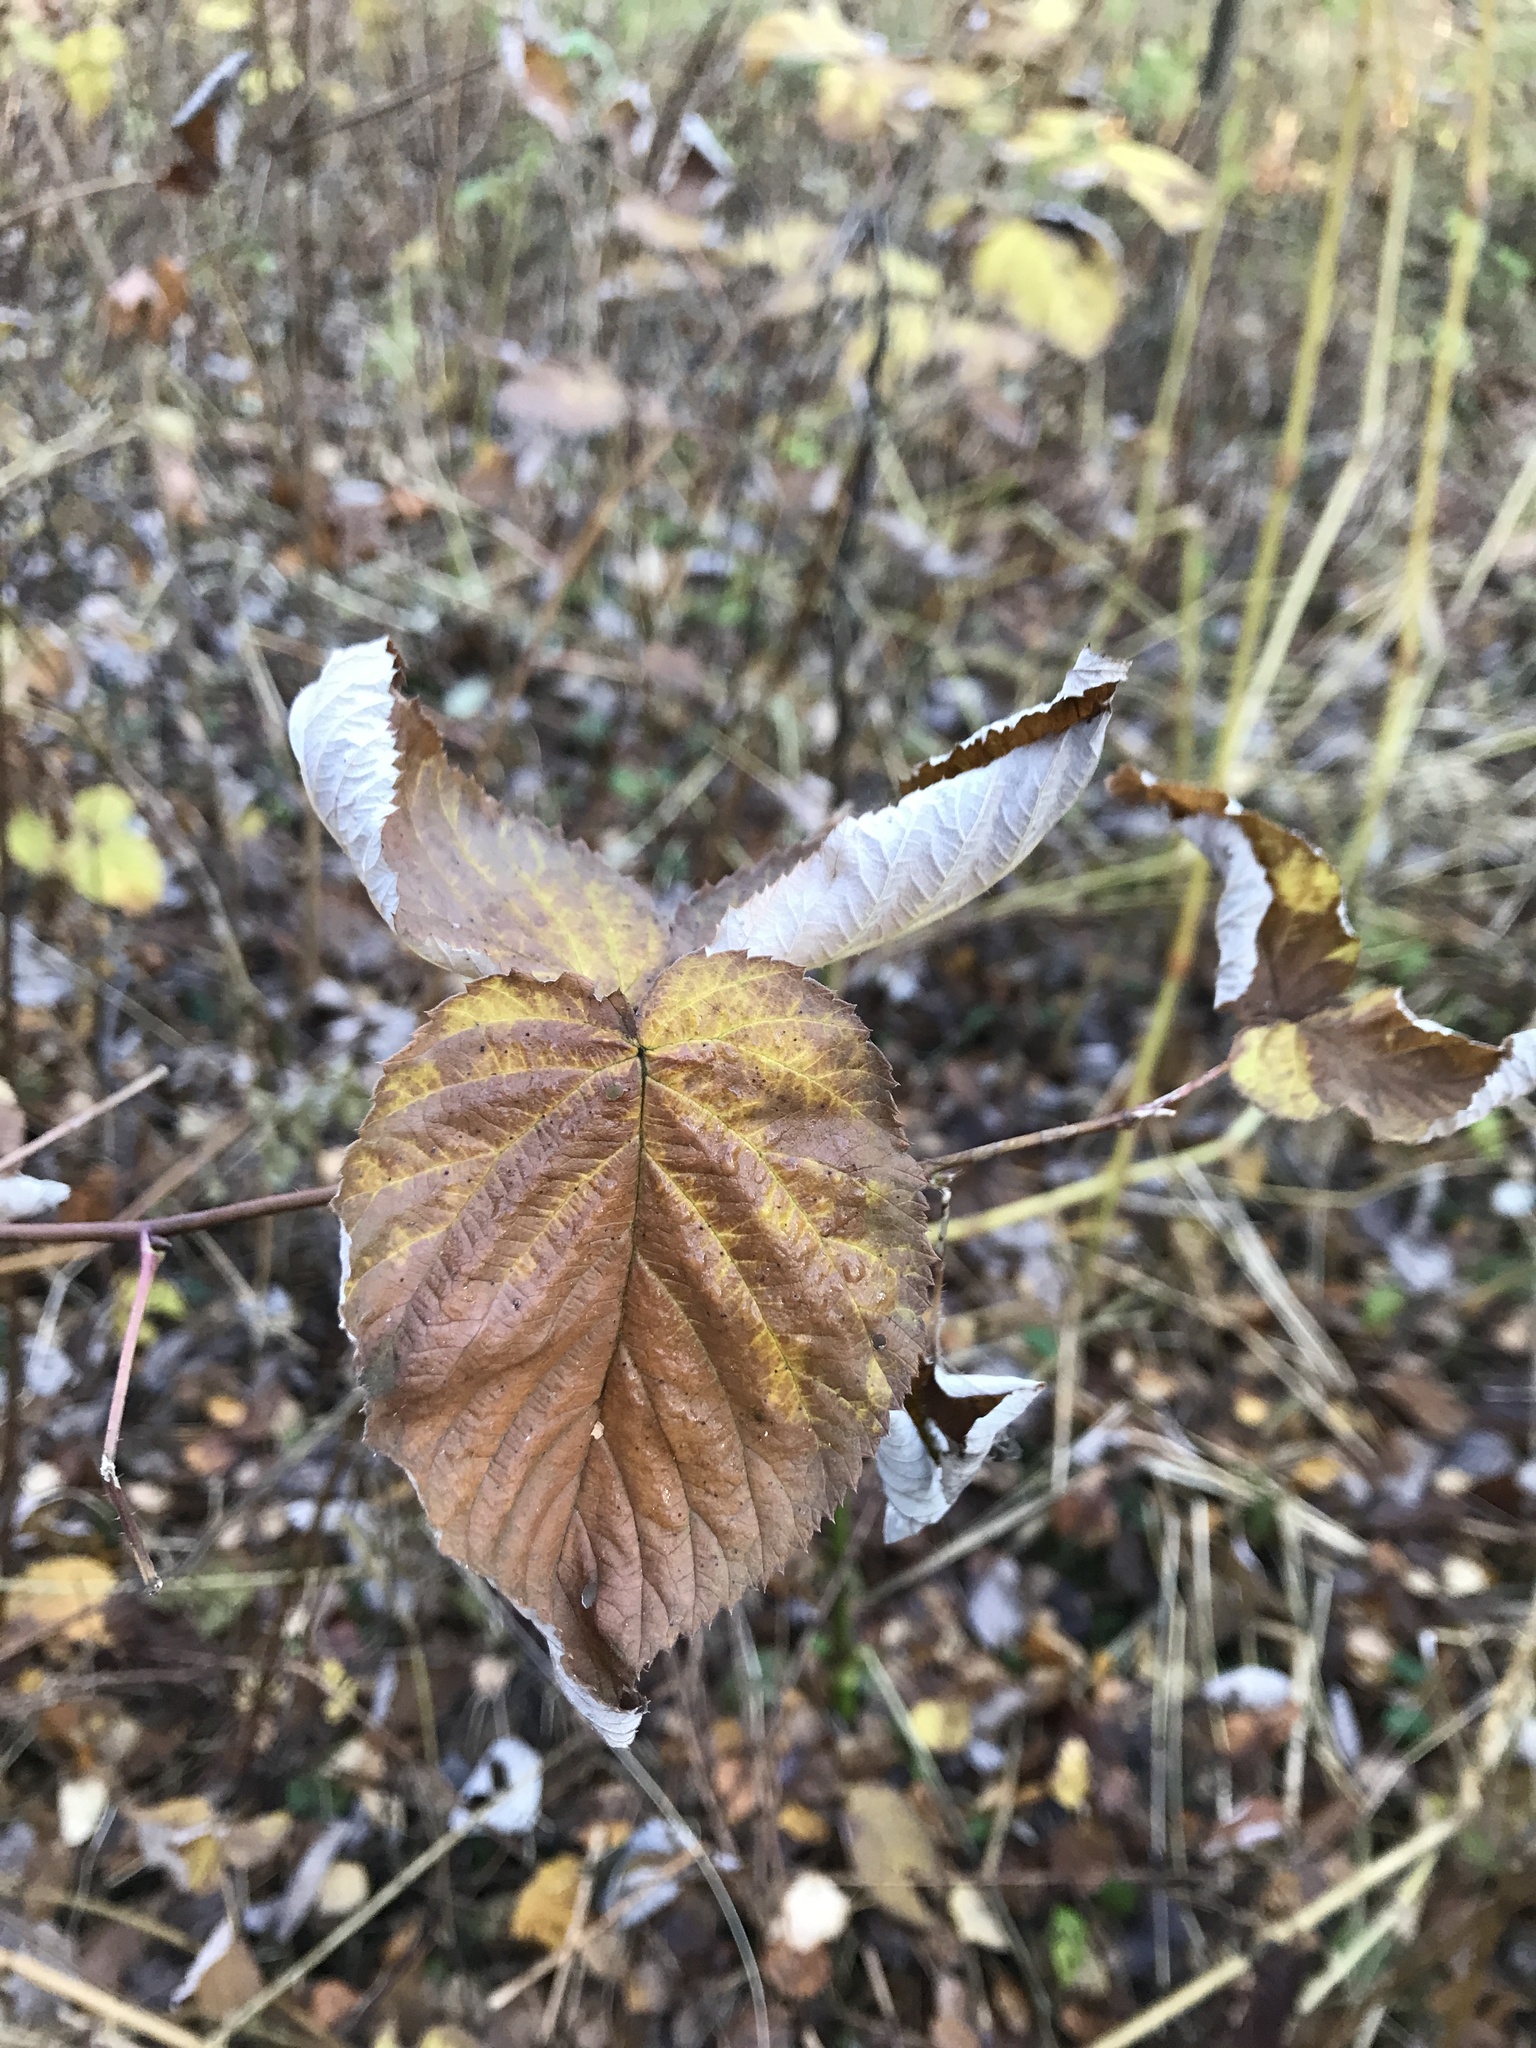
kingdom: Plantae
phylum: Tracheophyta
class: Magnoliopsida
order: Rosales
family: Rosaceae
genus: Rubus
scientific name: Rubus idaeus
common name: Raspberry
